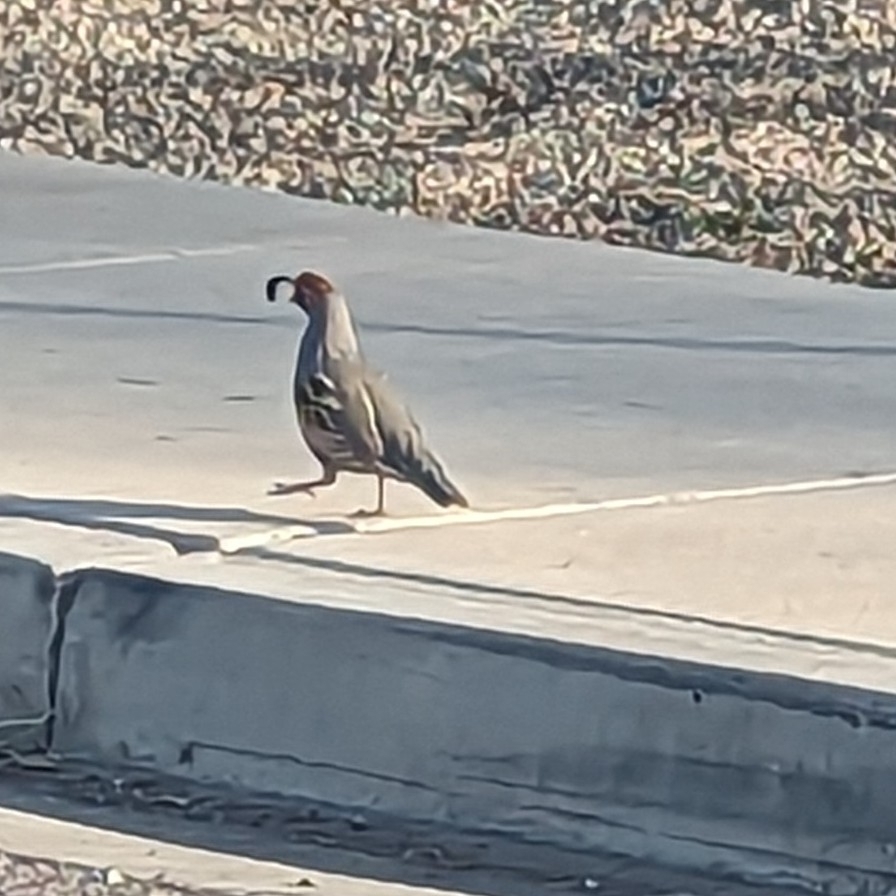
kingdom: Animalia
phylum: Chordata
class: Aves
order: Galliformes
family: Odontophoridae
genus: Callipepla
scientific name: Callipepla gambelii
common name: Gambel's quail
